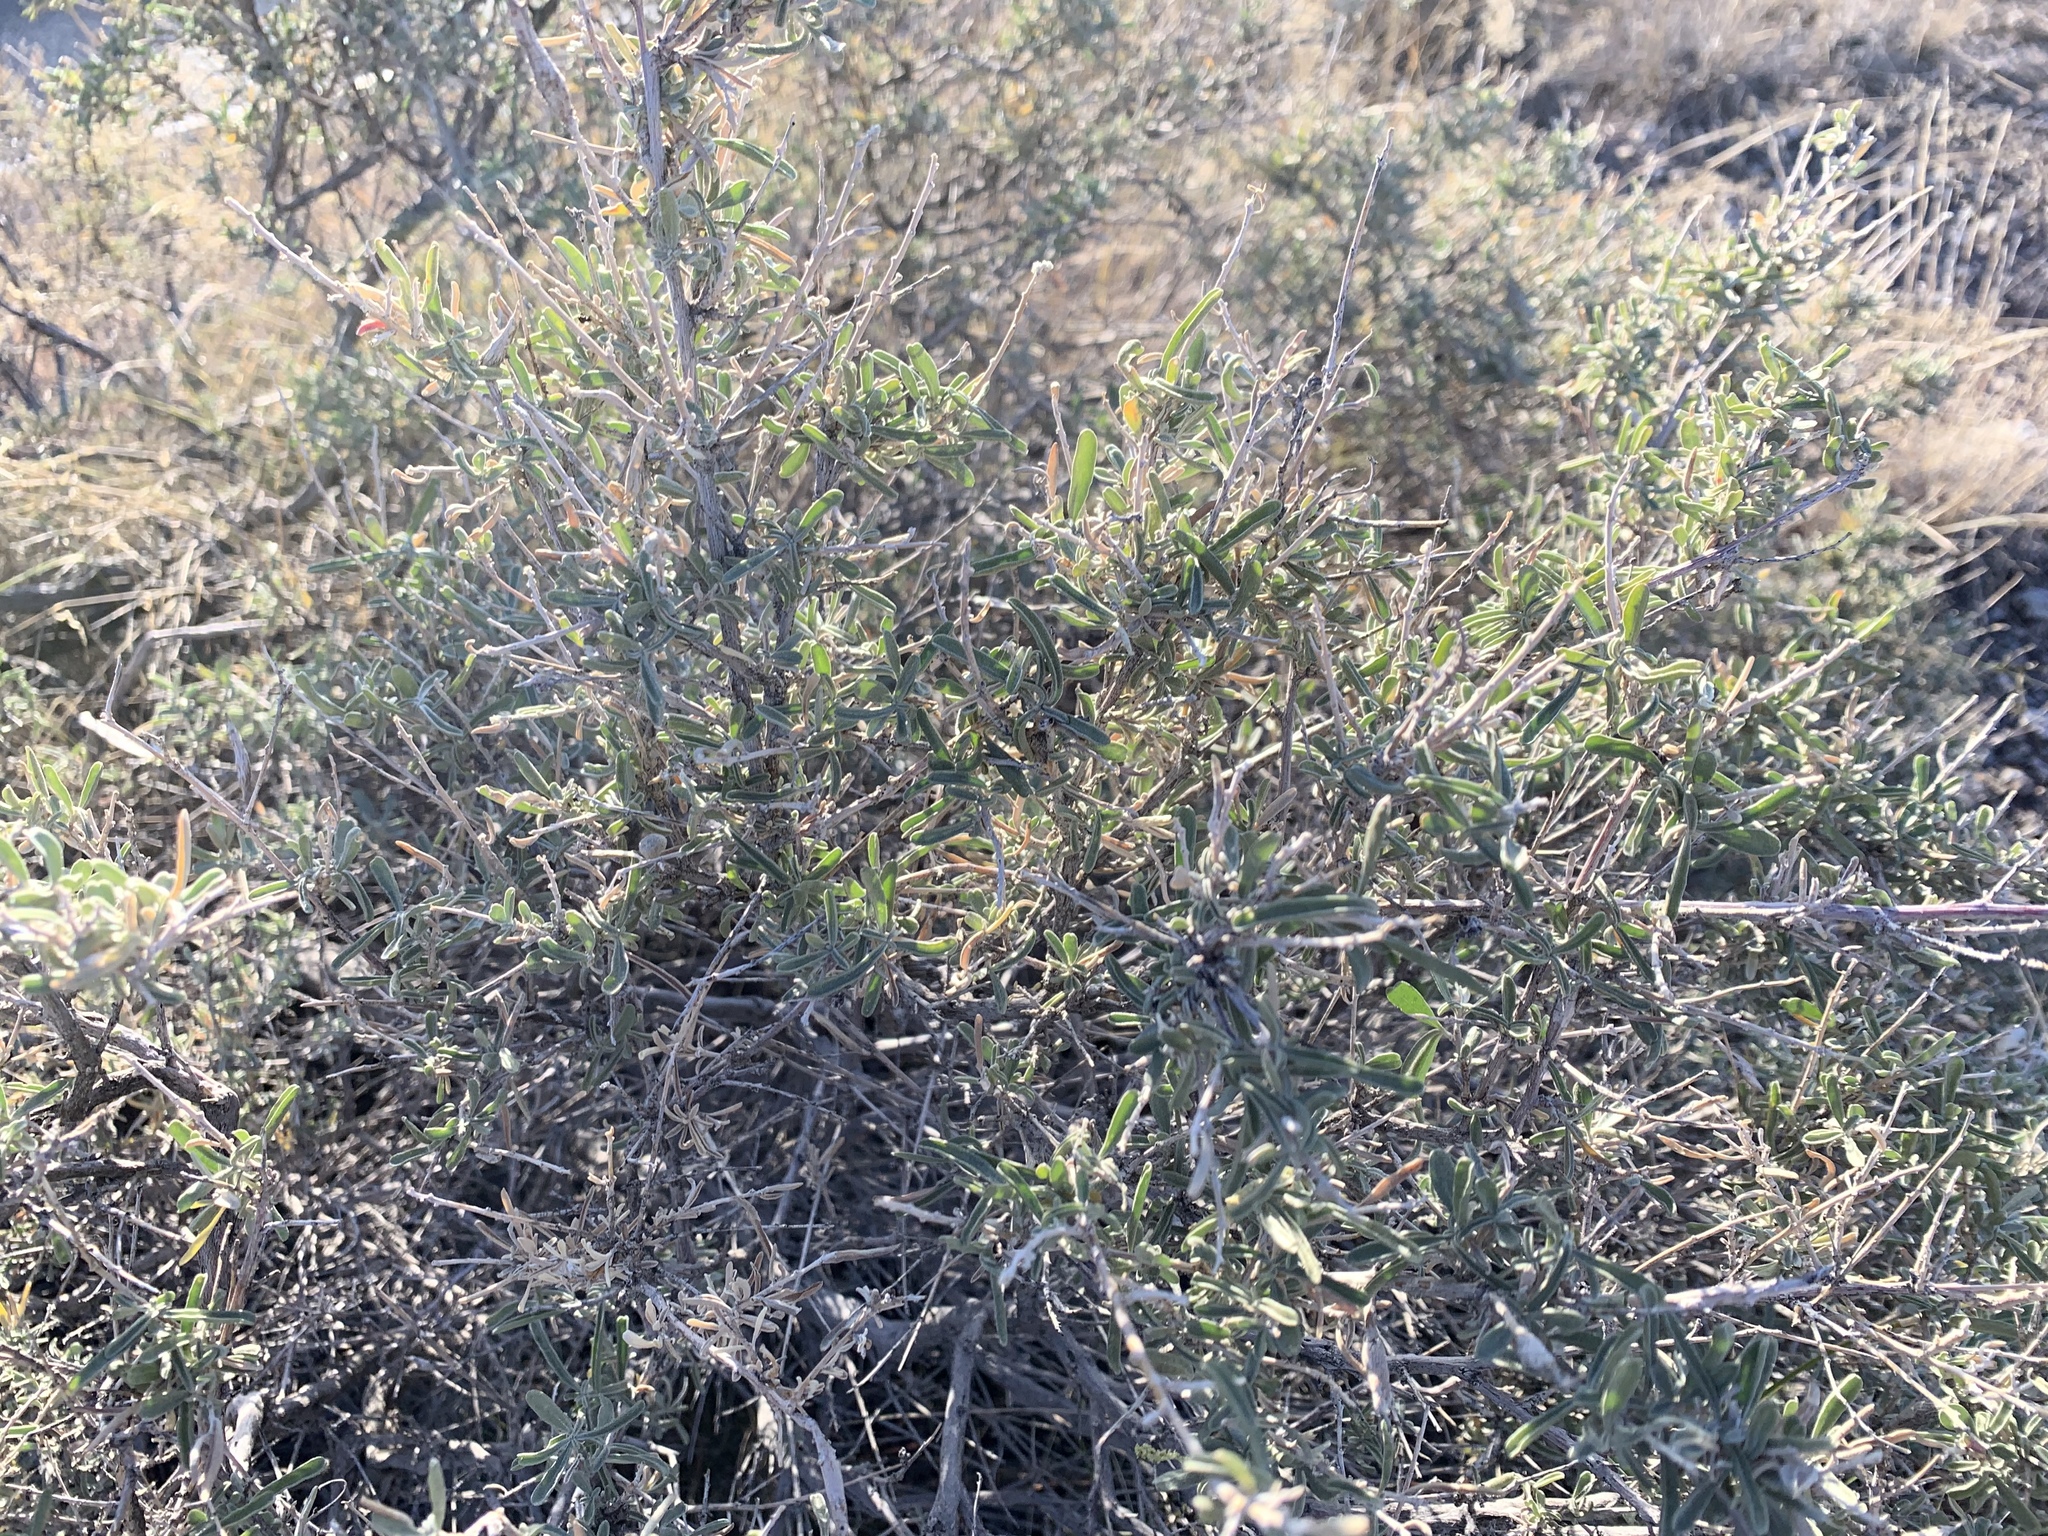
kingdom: Plantae
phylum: Tracheophyta
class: Magnoliopsida
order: Caryophyllales
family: Amaranthaceae
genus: Atriplex
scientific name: Atriplex canescens
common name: Four-wing saltbush
